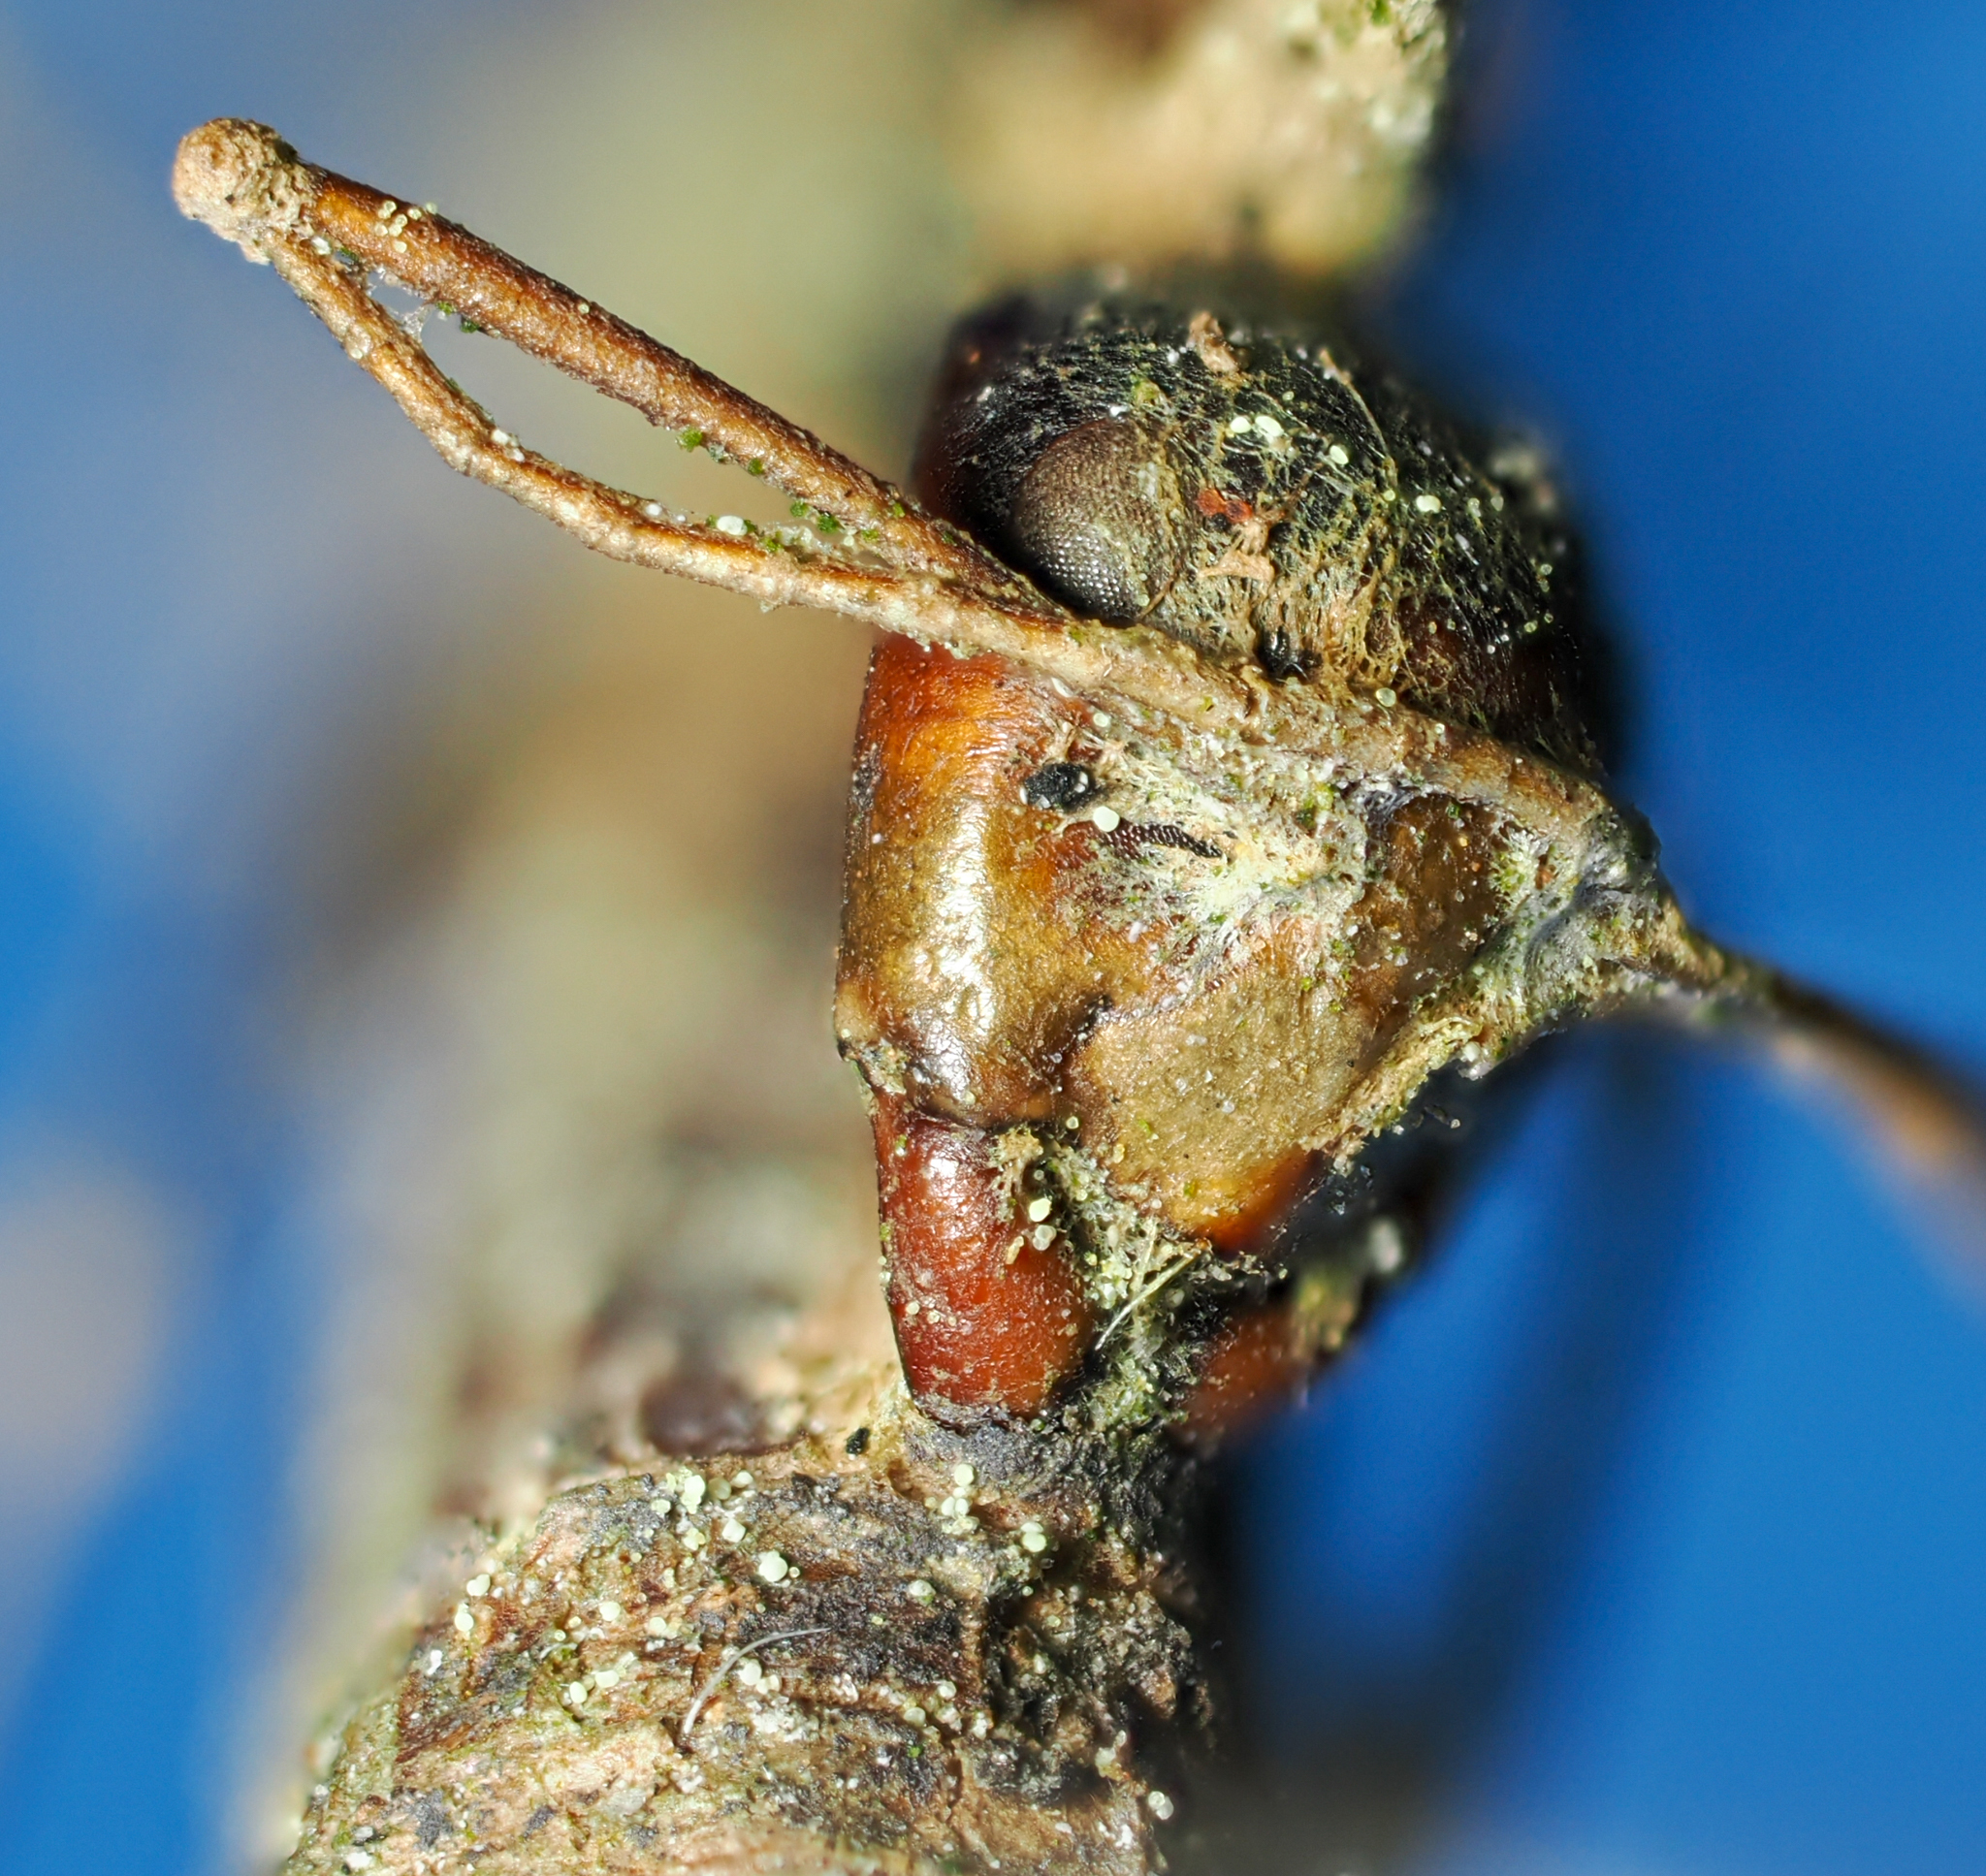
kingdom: Fungi
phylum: Ascomycota
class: Sordariomycetes
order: Hypocreales
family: Ophiocordycipitaceae
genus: Ophiocordyceps
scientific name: Ophiocordyceps kimflemingiae
